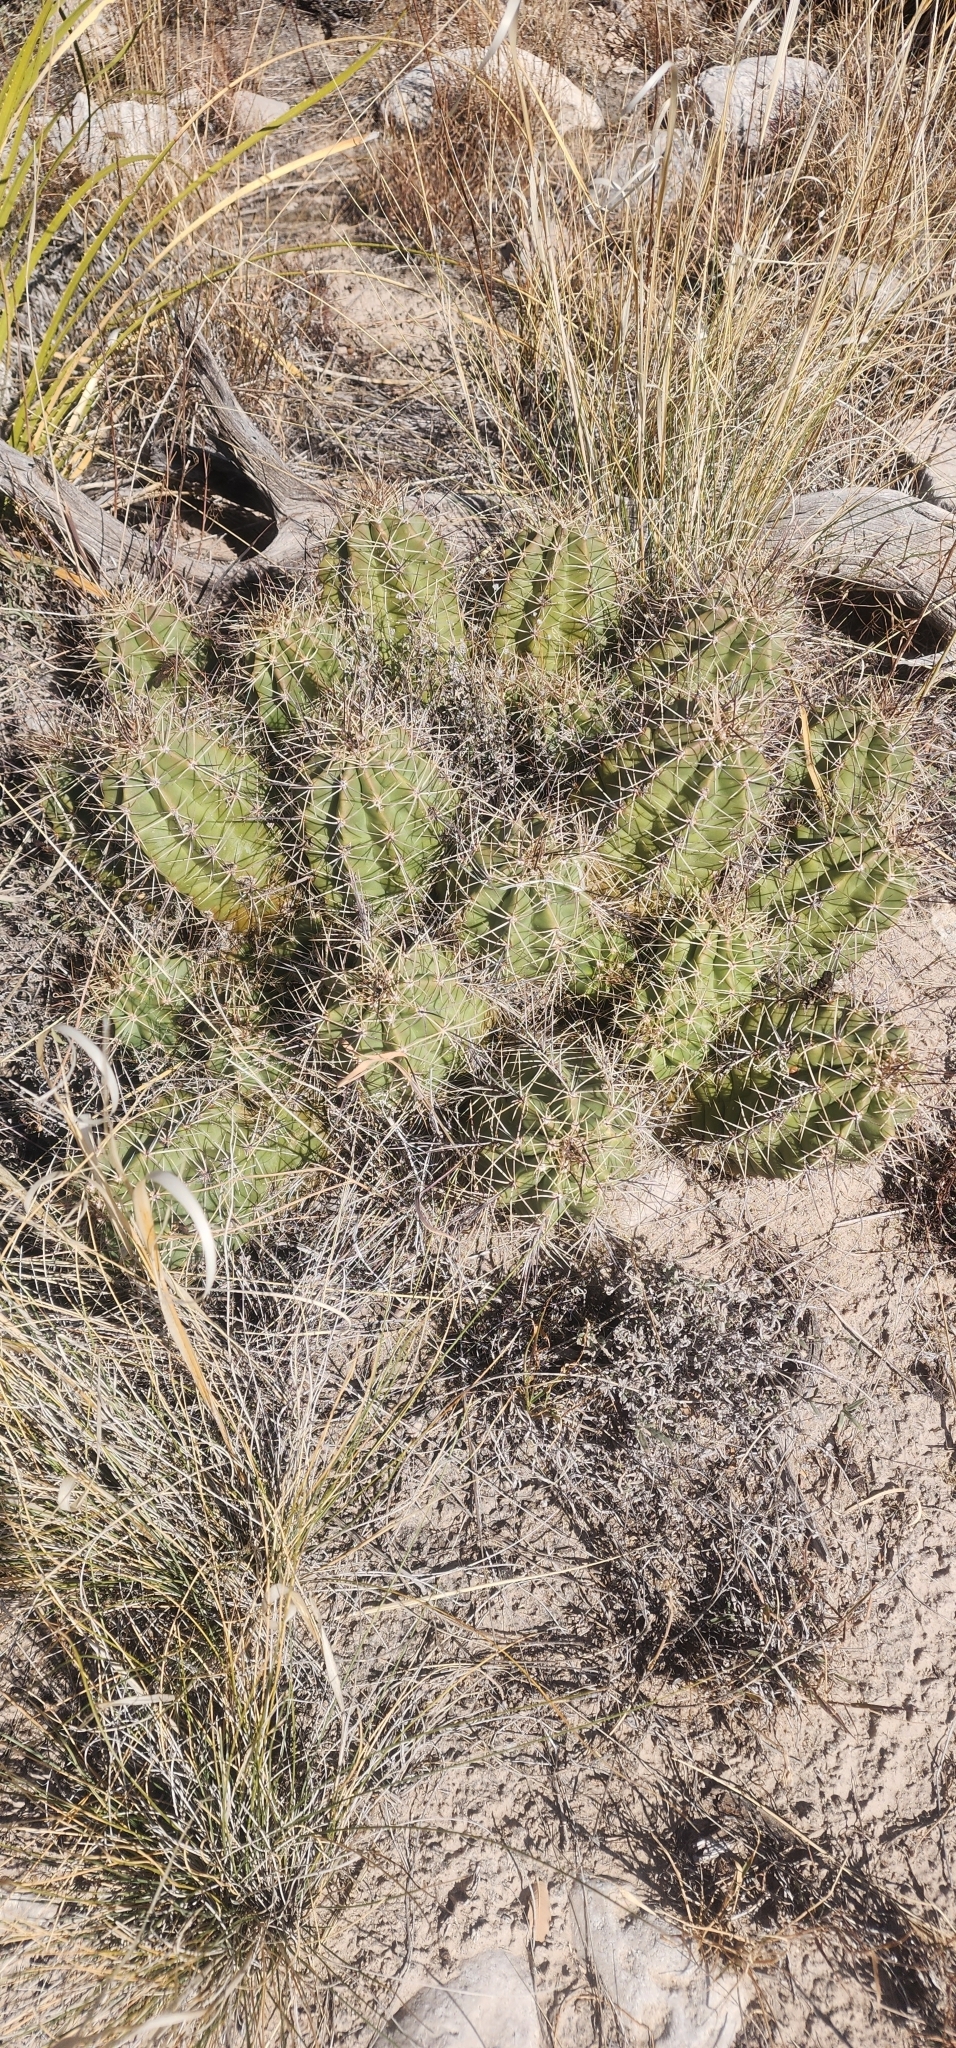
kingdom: Plantae
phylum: Tracheophyta
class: Magnoliopsida
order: Caryophyllales
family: Cactaceae
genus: Echinocereus
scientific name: Echinocereus coccineus
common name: Scarlet hedgehog cactus
